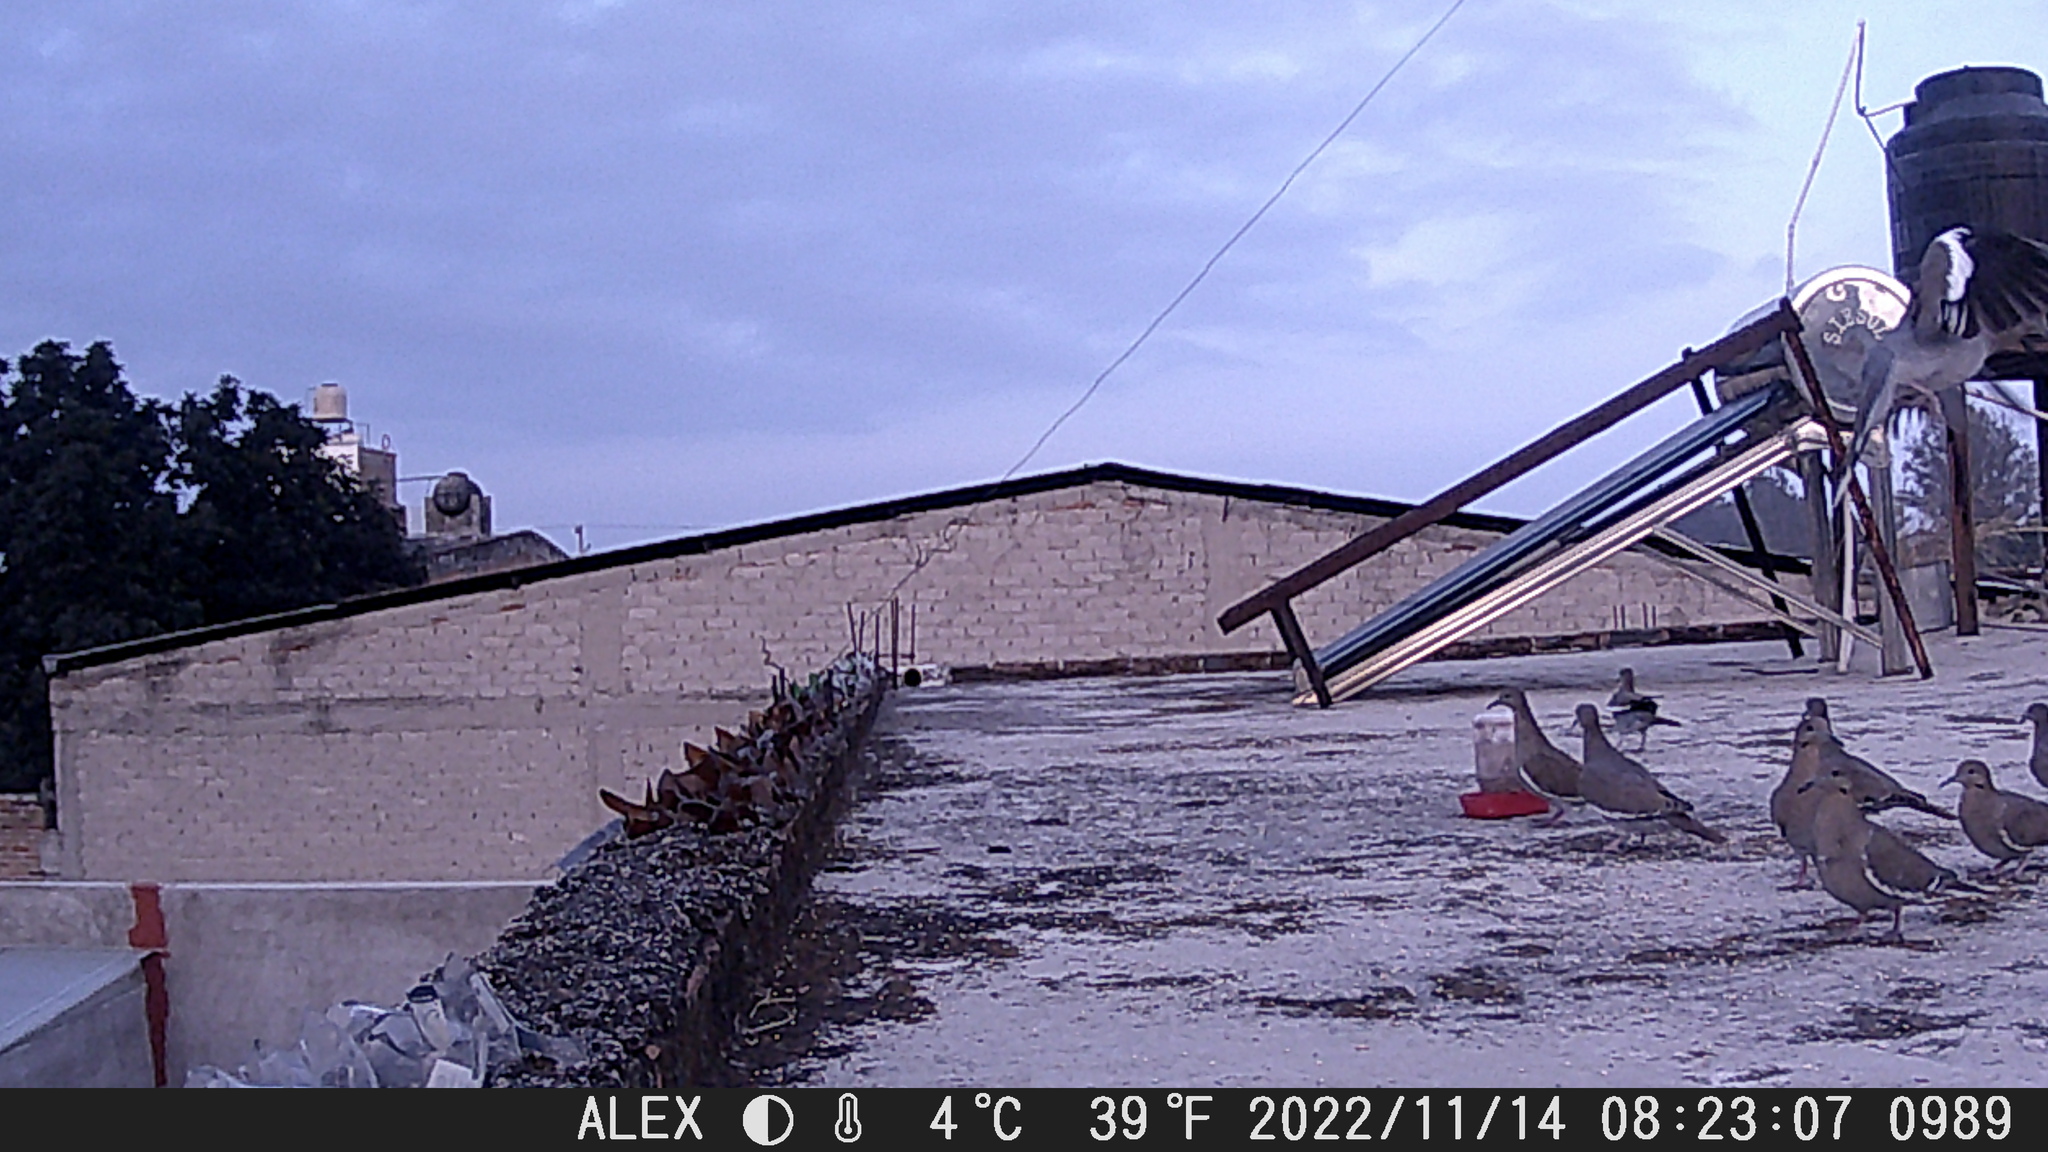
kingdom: Animalia
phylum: Chordata
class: Aves
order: Columbiformes
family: Columbidae
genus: Zenaida
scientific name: Zenaida asiatica
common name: White-winged dove
